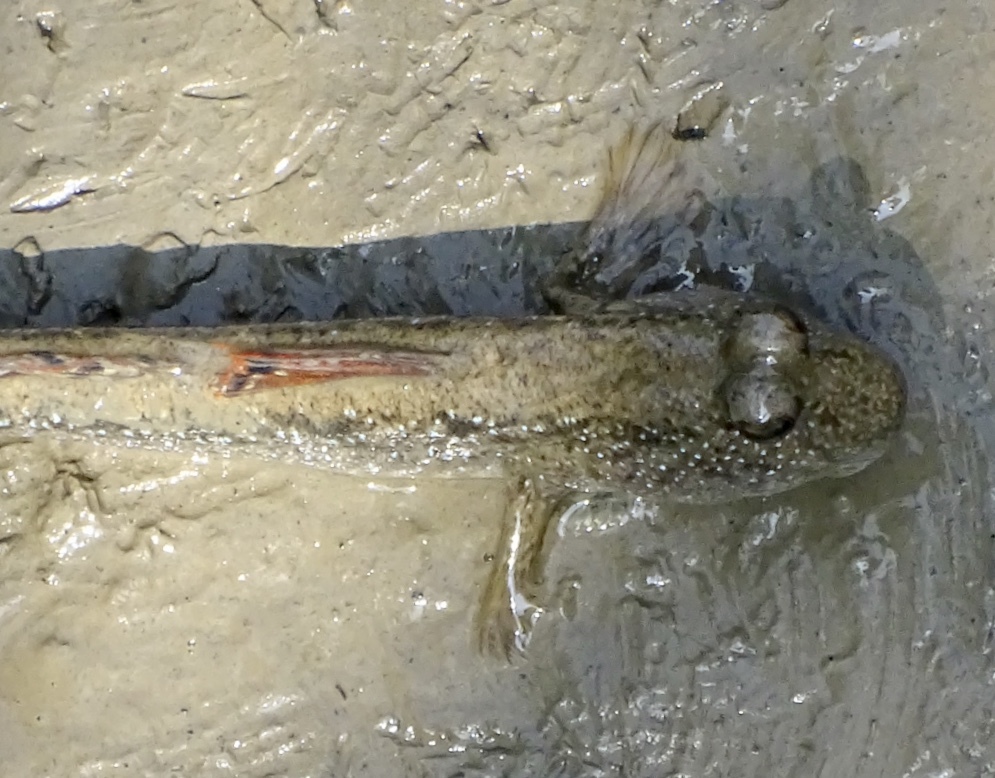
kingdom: Animalia
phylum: Chordata
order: Perciformes
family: Gobiidae
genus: Periophthalmus
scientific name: Periophthalmus magnuspinnatus
